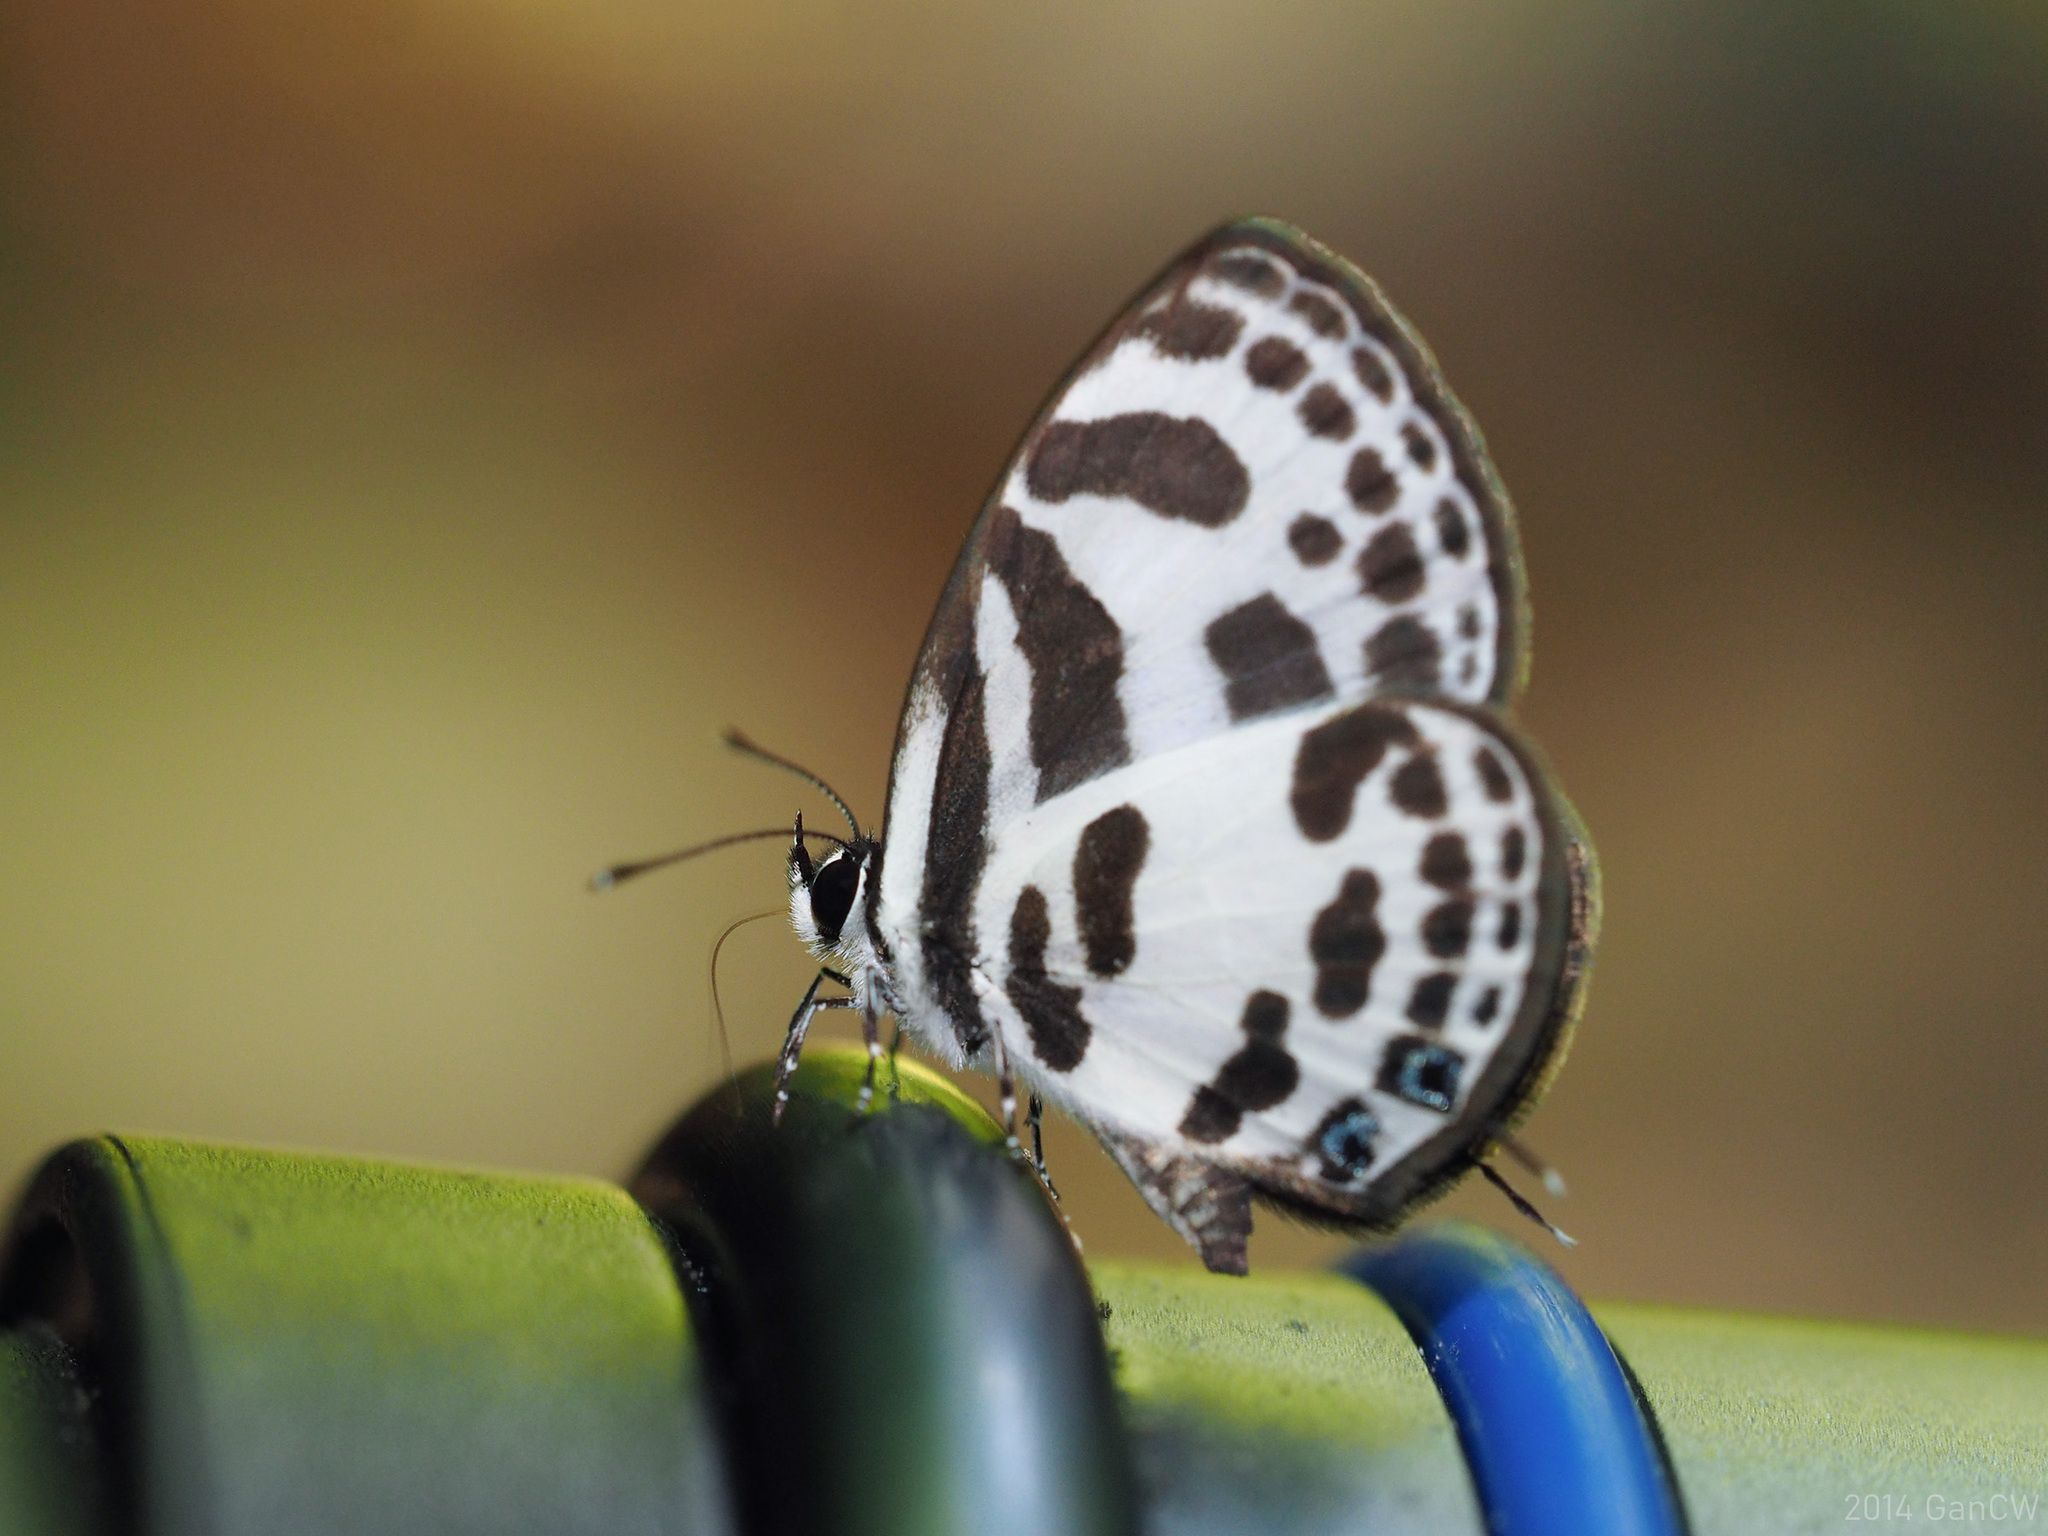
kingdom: Animalia
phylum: Arthropoda
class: Insecta
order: Lepidoptera
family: Lycaenidae
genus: Discolampa
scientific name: Discolampa ethion
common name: Banded blue pierrot
